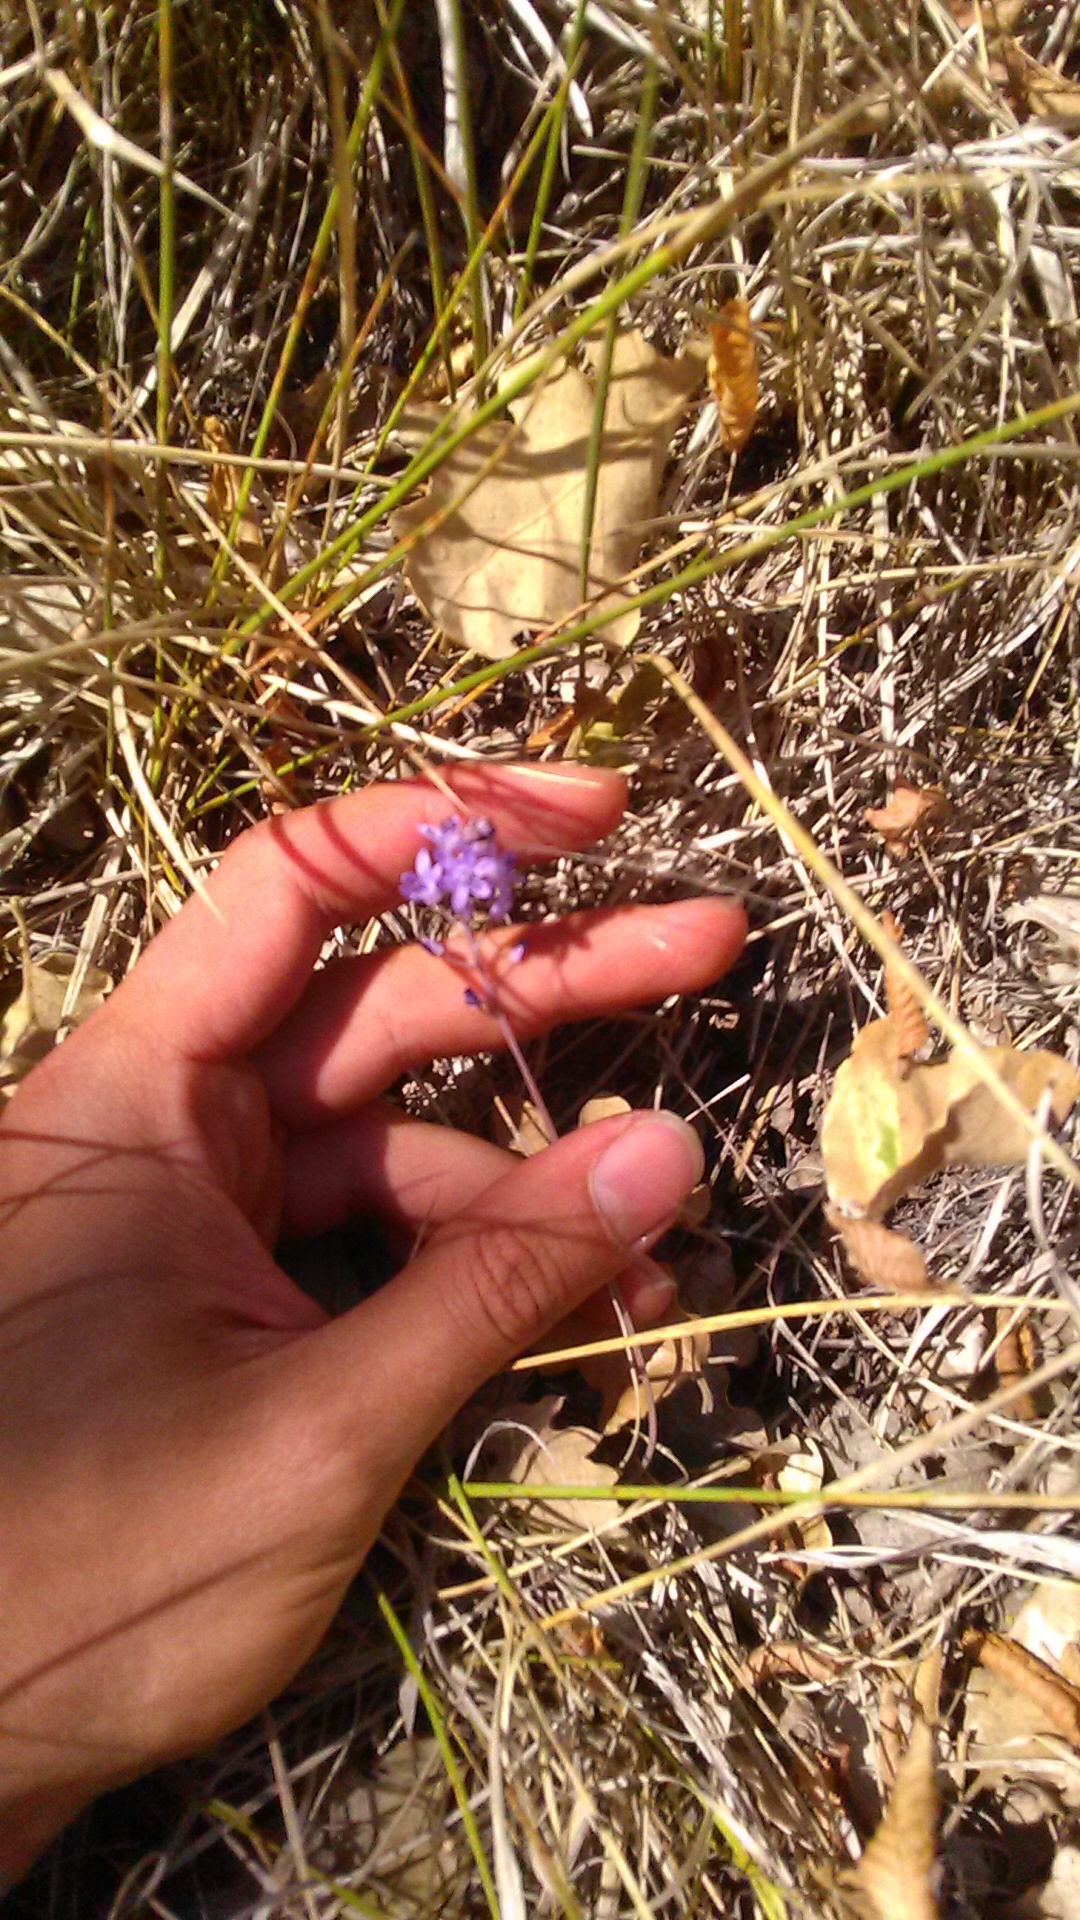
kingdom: Plantae
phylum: Tracheophyta
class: Liliopsida
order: Asparagales
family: Asparagaceae
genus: Prospero
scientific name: Prospero autumnale
